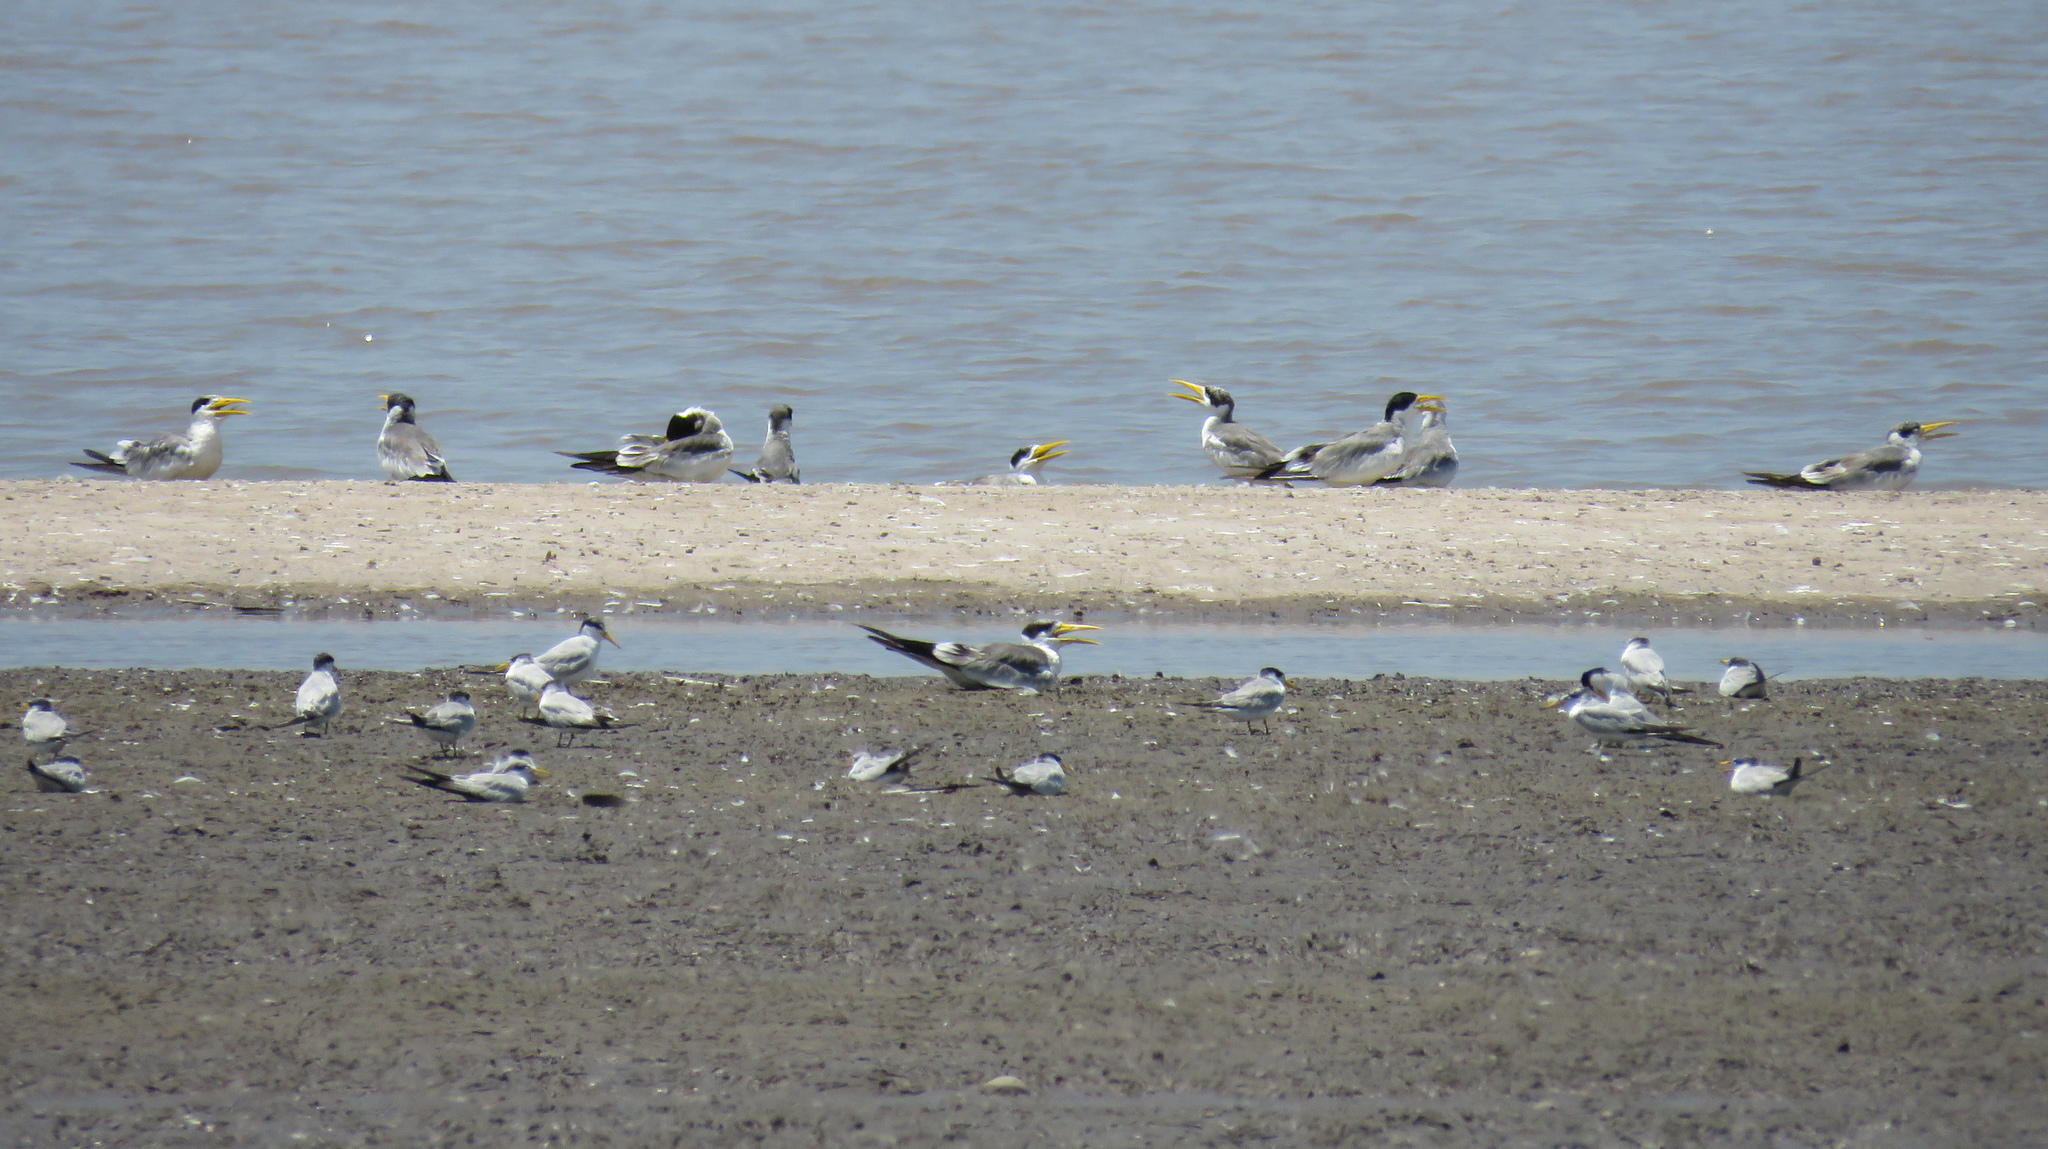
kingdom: Animalia
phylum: Chordata
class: Aves
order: Charadriiformes
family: Laridae
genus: Sternula
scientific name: Sternula superciliaris
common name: Yellow-billed tern
